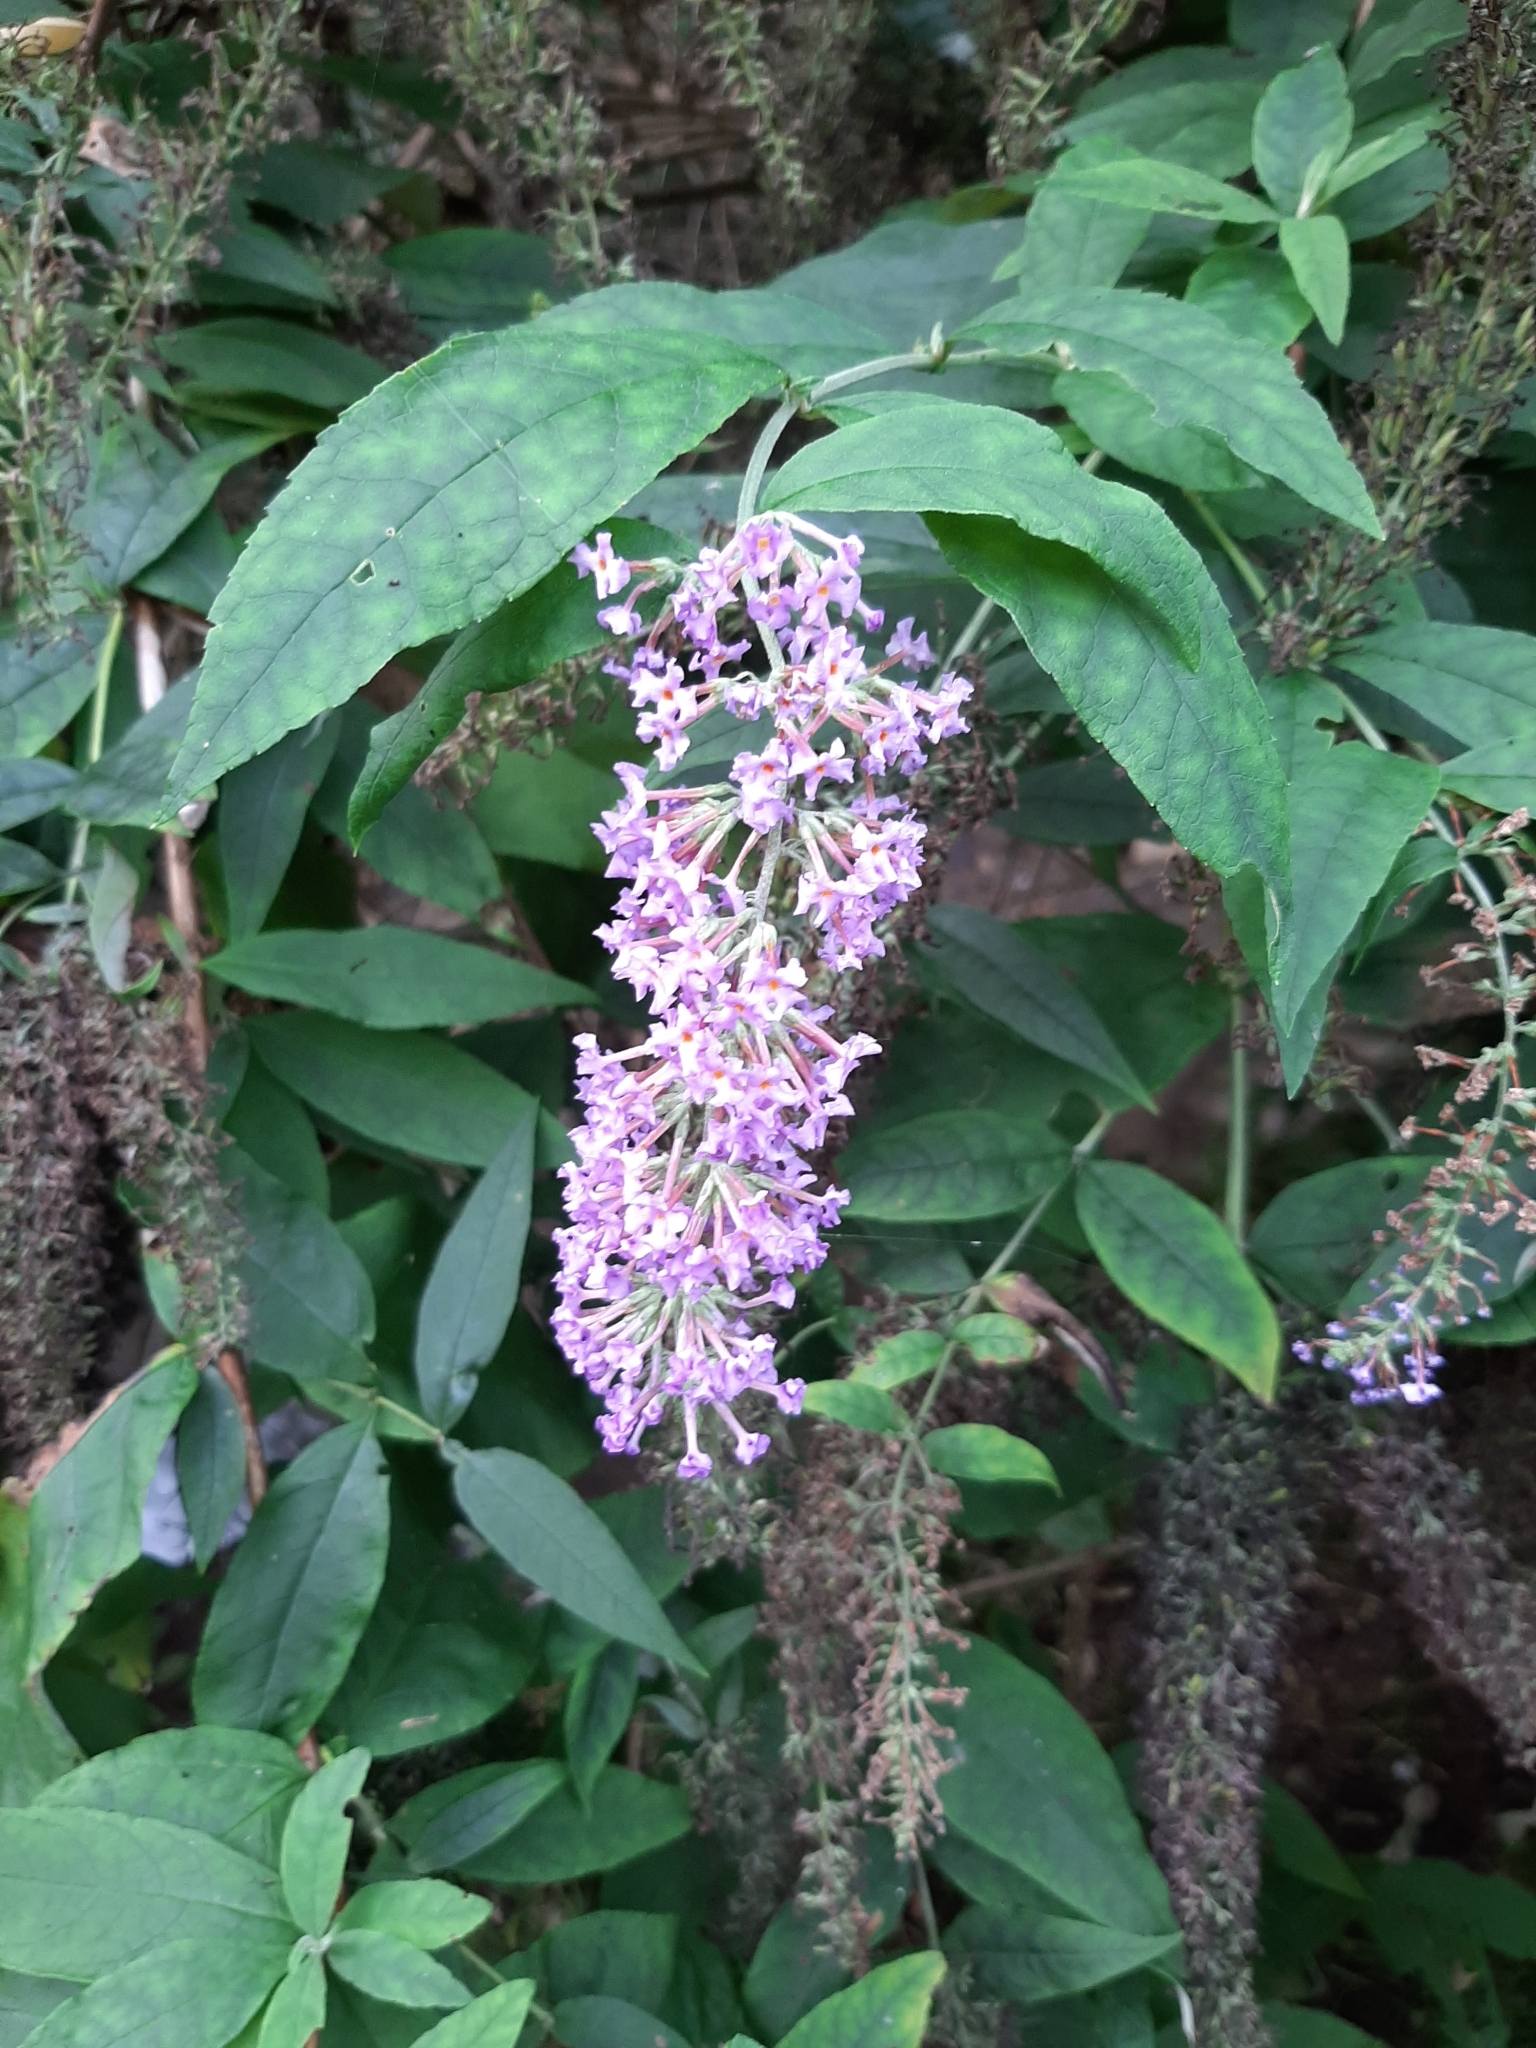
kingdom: Plantae
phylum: Tracheophyta
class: Magnoliopsida
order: Lamiales
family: Scrophulariaceae
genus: Buddleja
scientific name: Buddleja davidii
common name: Butterfly-bush
